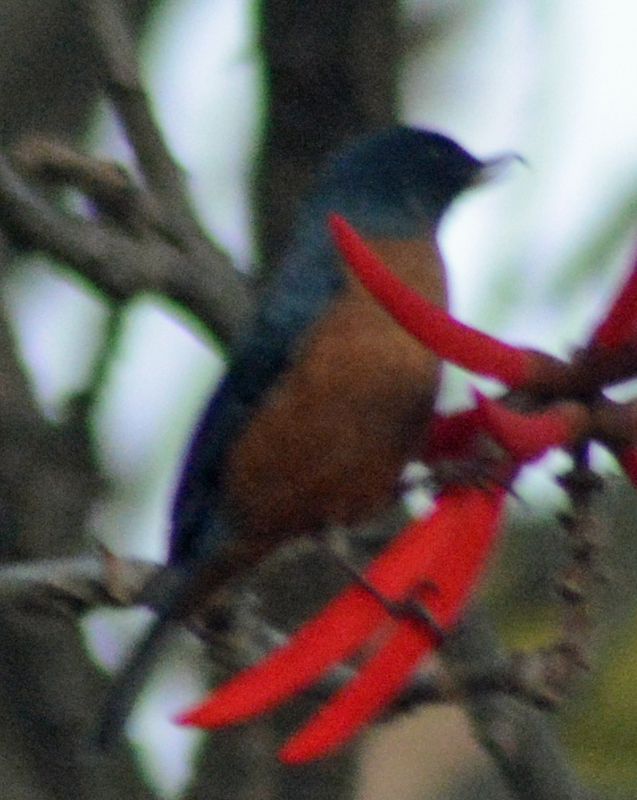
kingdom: Animalia
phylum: Chordata
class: Aves
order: Passeriformes
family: Thraupidae
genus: Diglossa
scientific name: Diglossa baritula
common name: Cinnamon-bellied flowerpiercer
